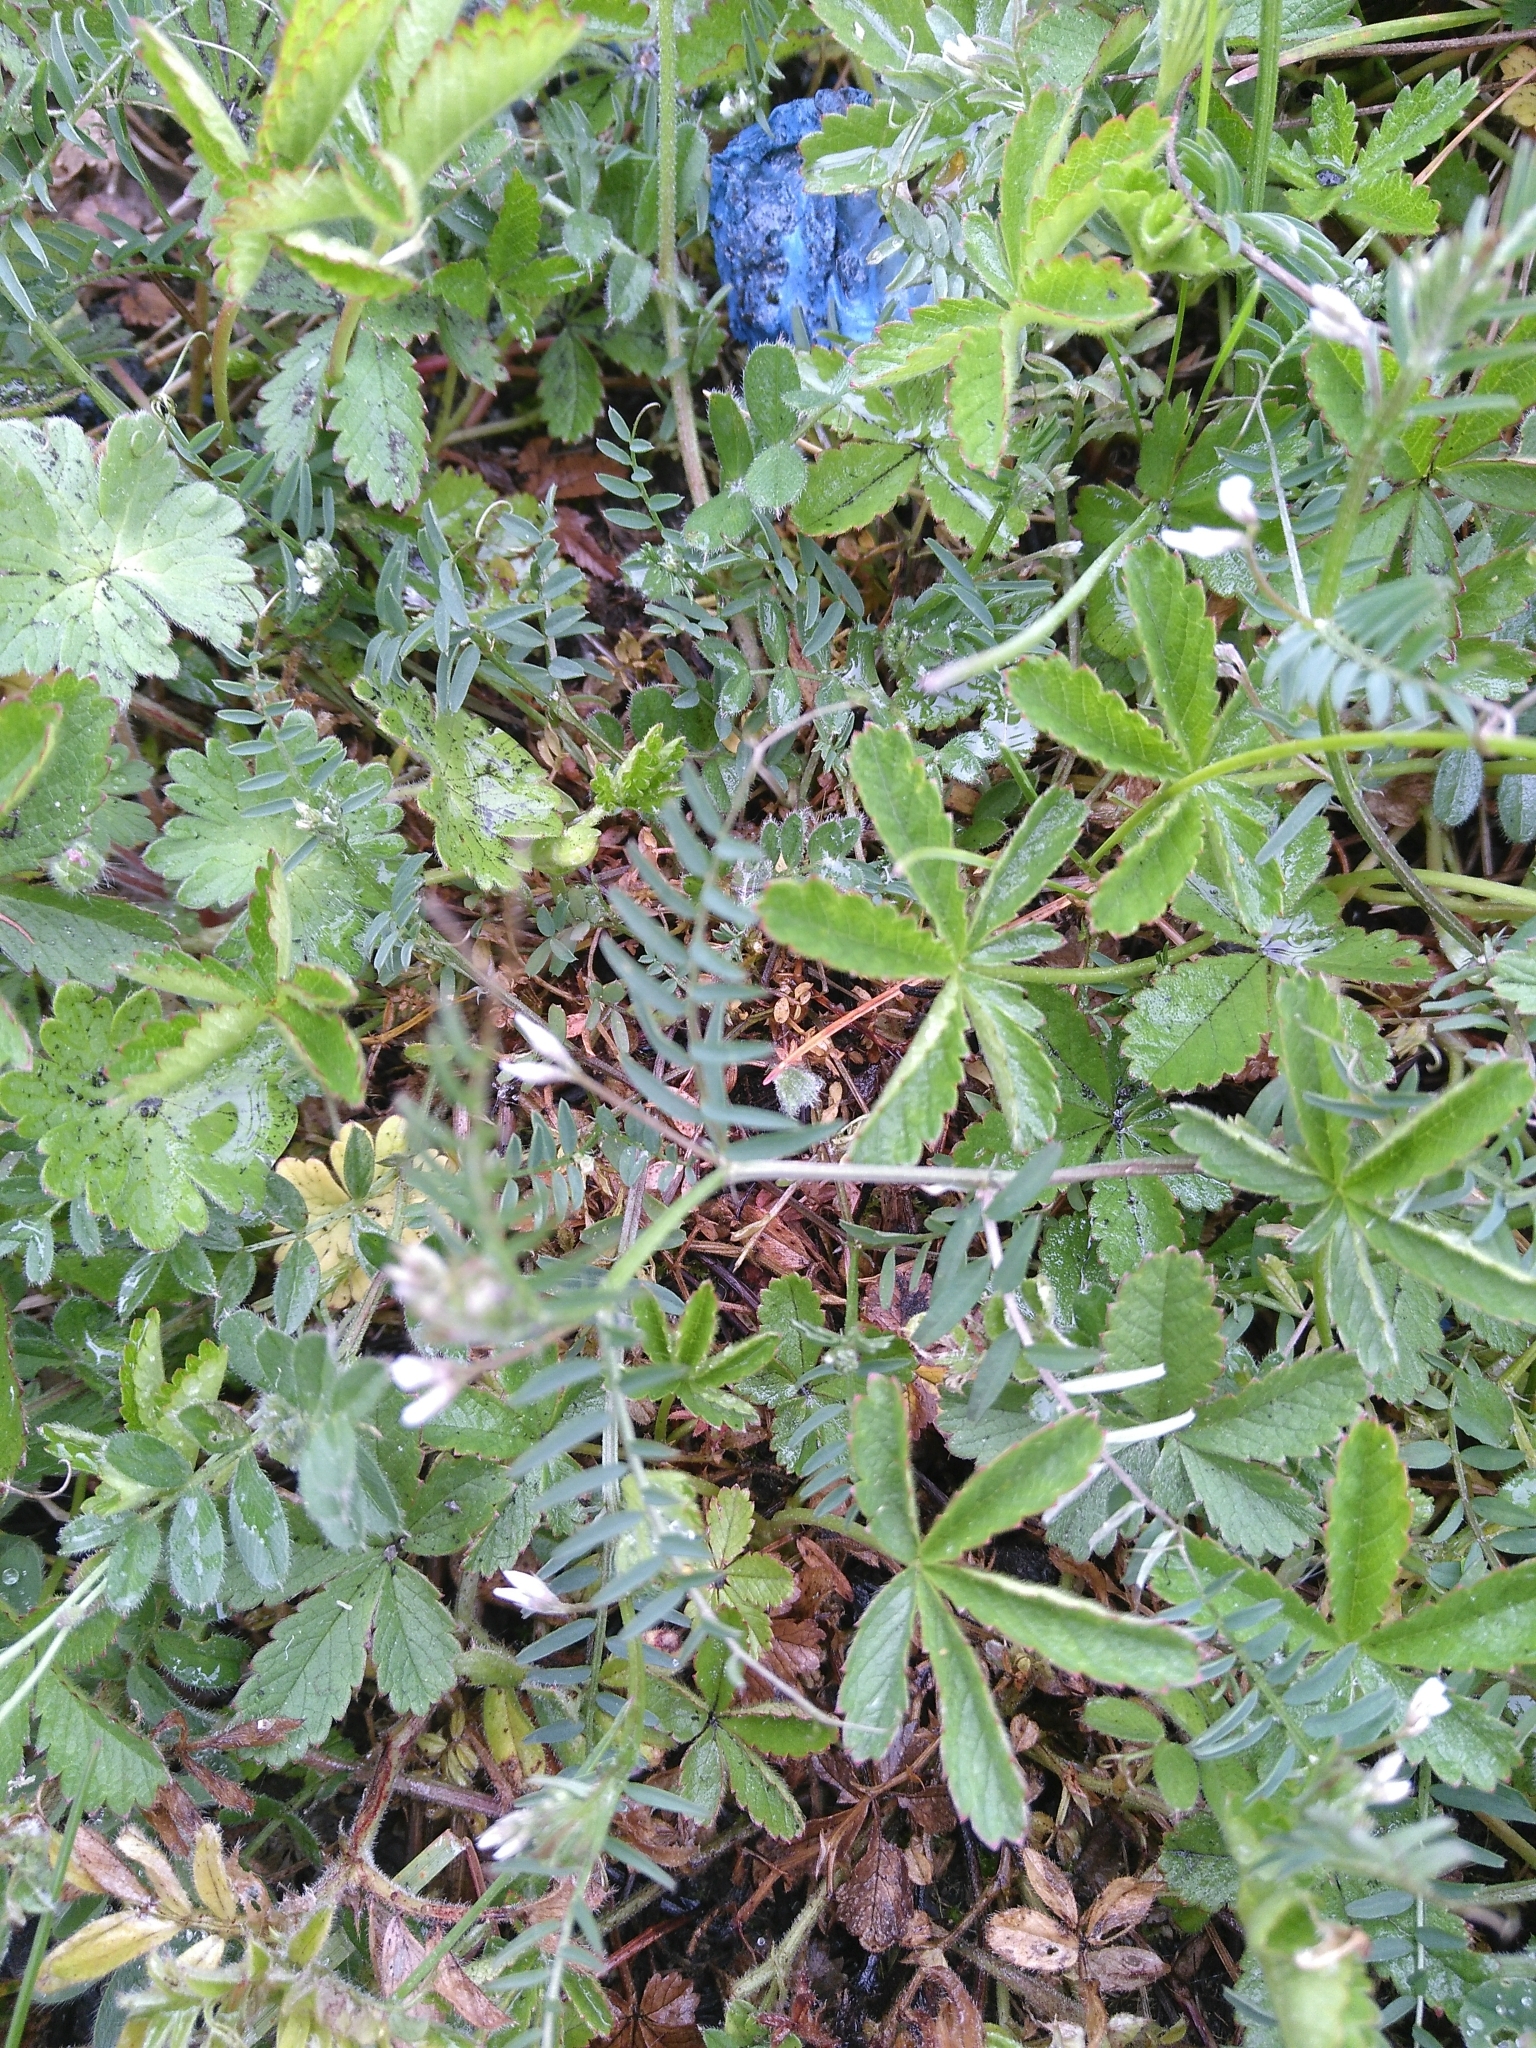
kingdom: Plantae
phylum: Tracheophyta
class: Magnoliopsida
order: Fabales
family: Fabaceae
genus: Vicia
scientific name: Vicia hirsuta
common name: Tiny vetch
